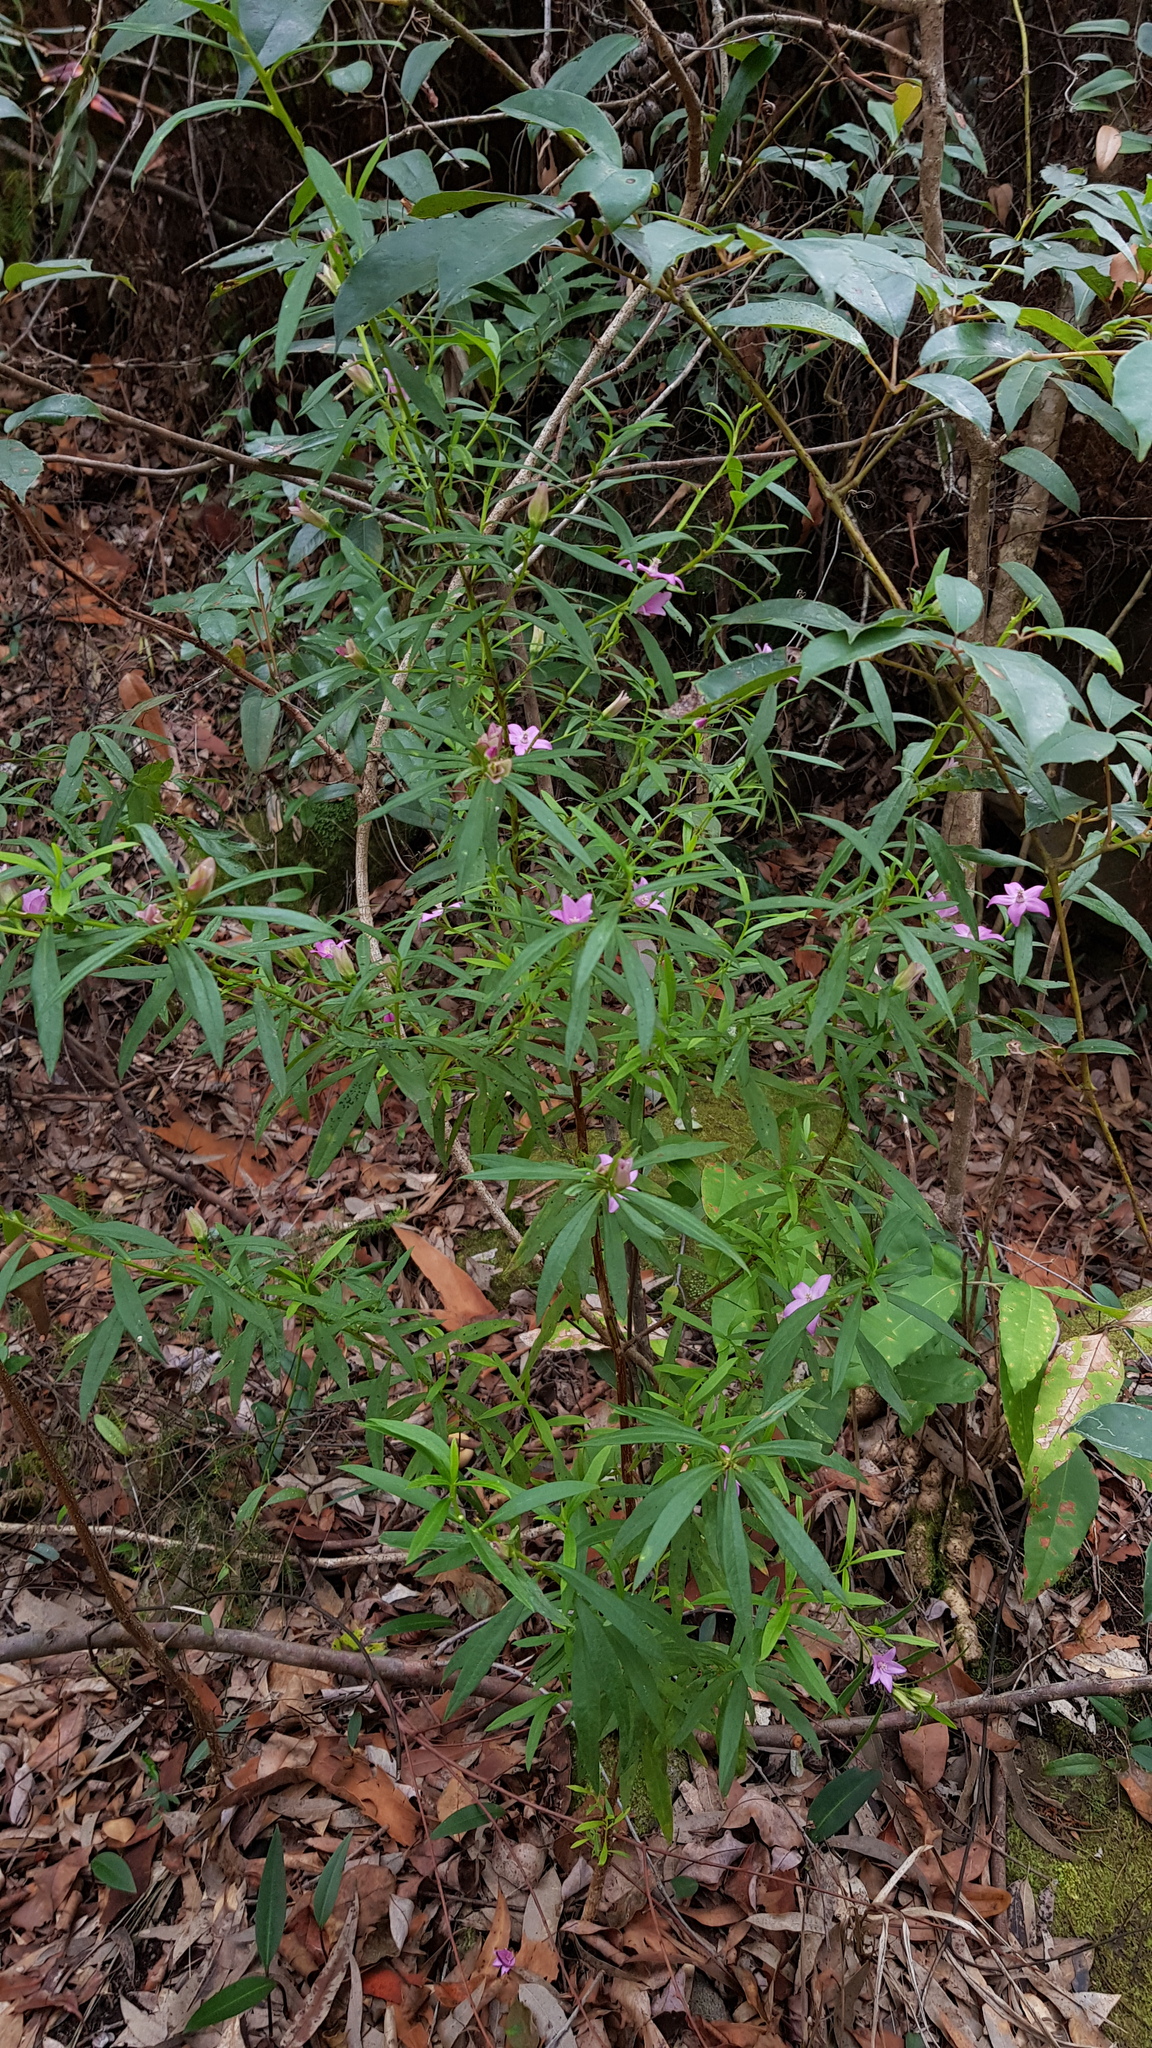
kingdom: Plantae
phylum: Tracheophyta
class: Magnoliopsida
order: Sapindales
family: Rutaceae
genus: Crowea
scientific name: Crowea saligna
